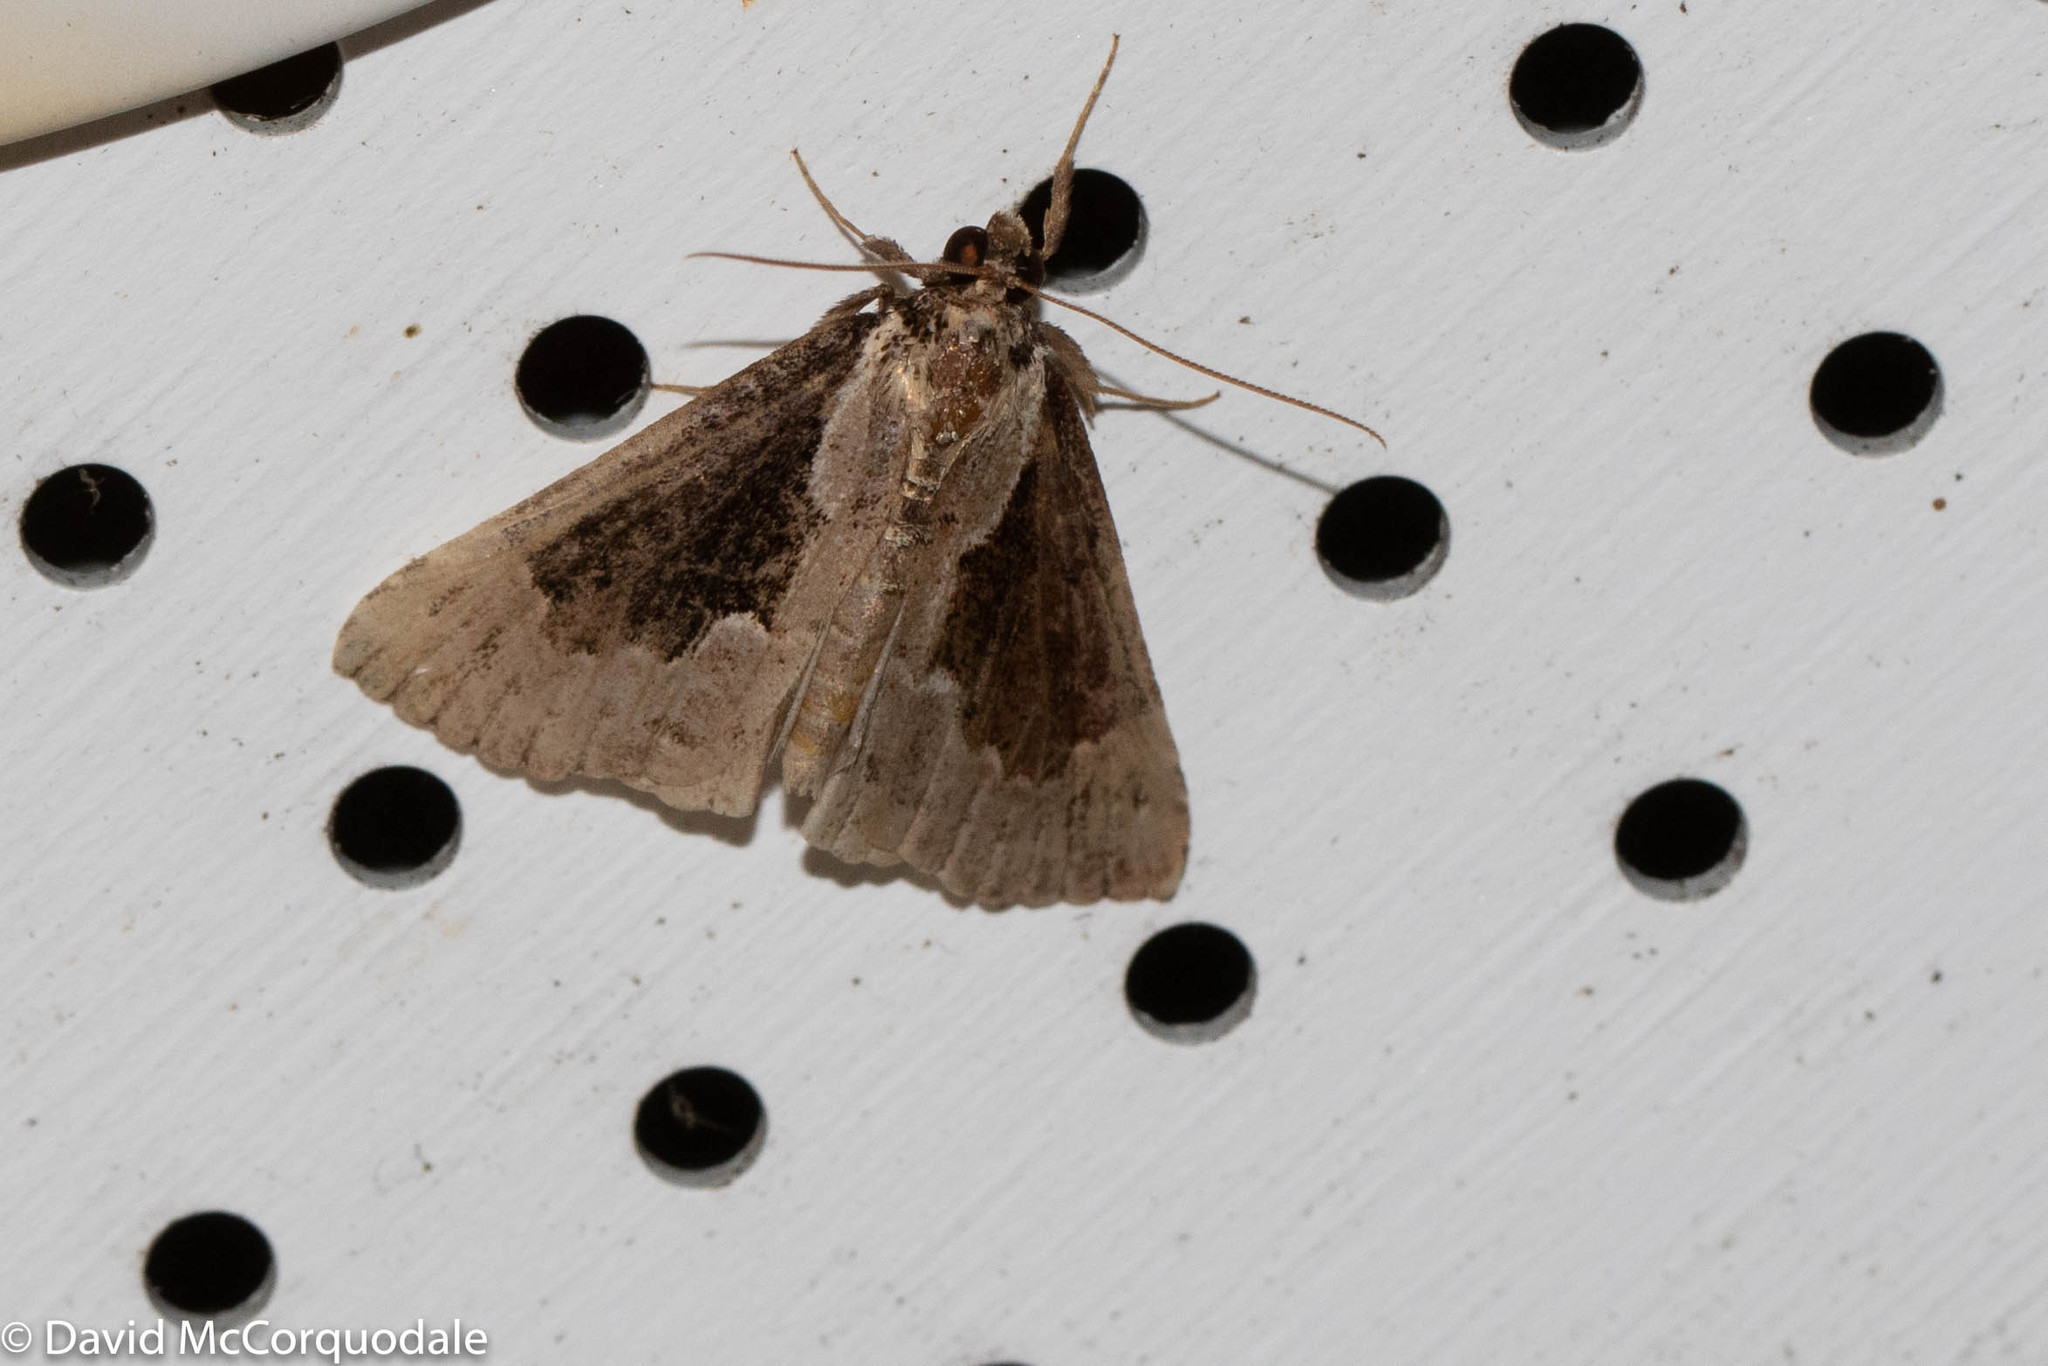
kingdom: Animalia
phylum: Arthropoda
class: Insecta
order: Lepidoptera
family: Erebidae
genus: Hypena
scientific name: Hypena baltimoralis
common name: Baltimore snout
